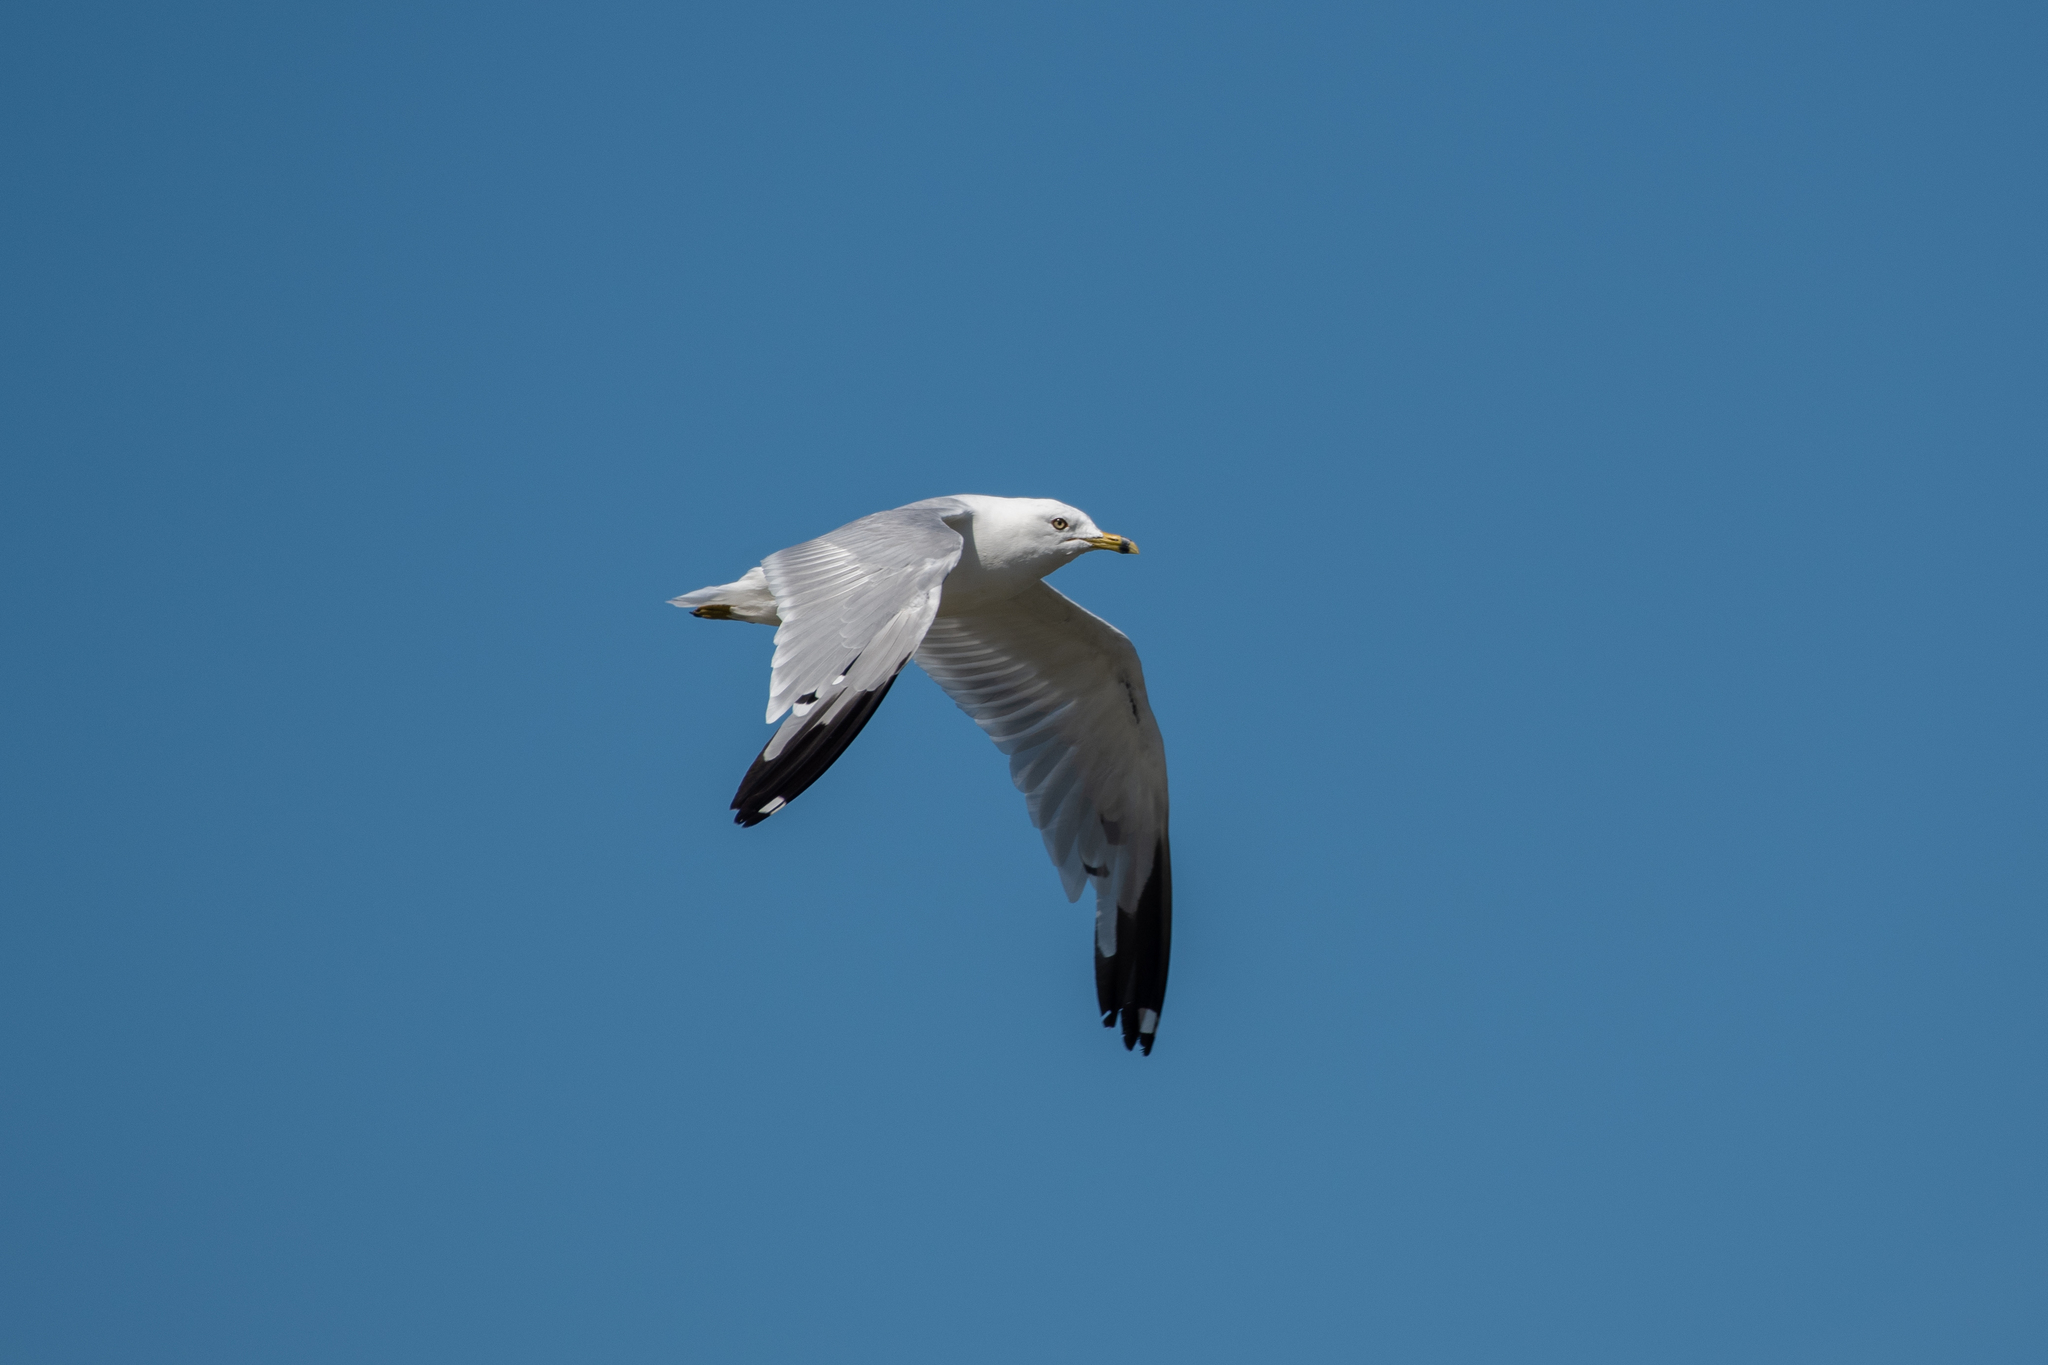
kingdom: Animalia
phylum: Chordata
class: Aves
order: Charadriiformes
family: Laridae
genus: Larus
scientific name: Larus delawarensis
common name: Ring-billed gull
